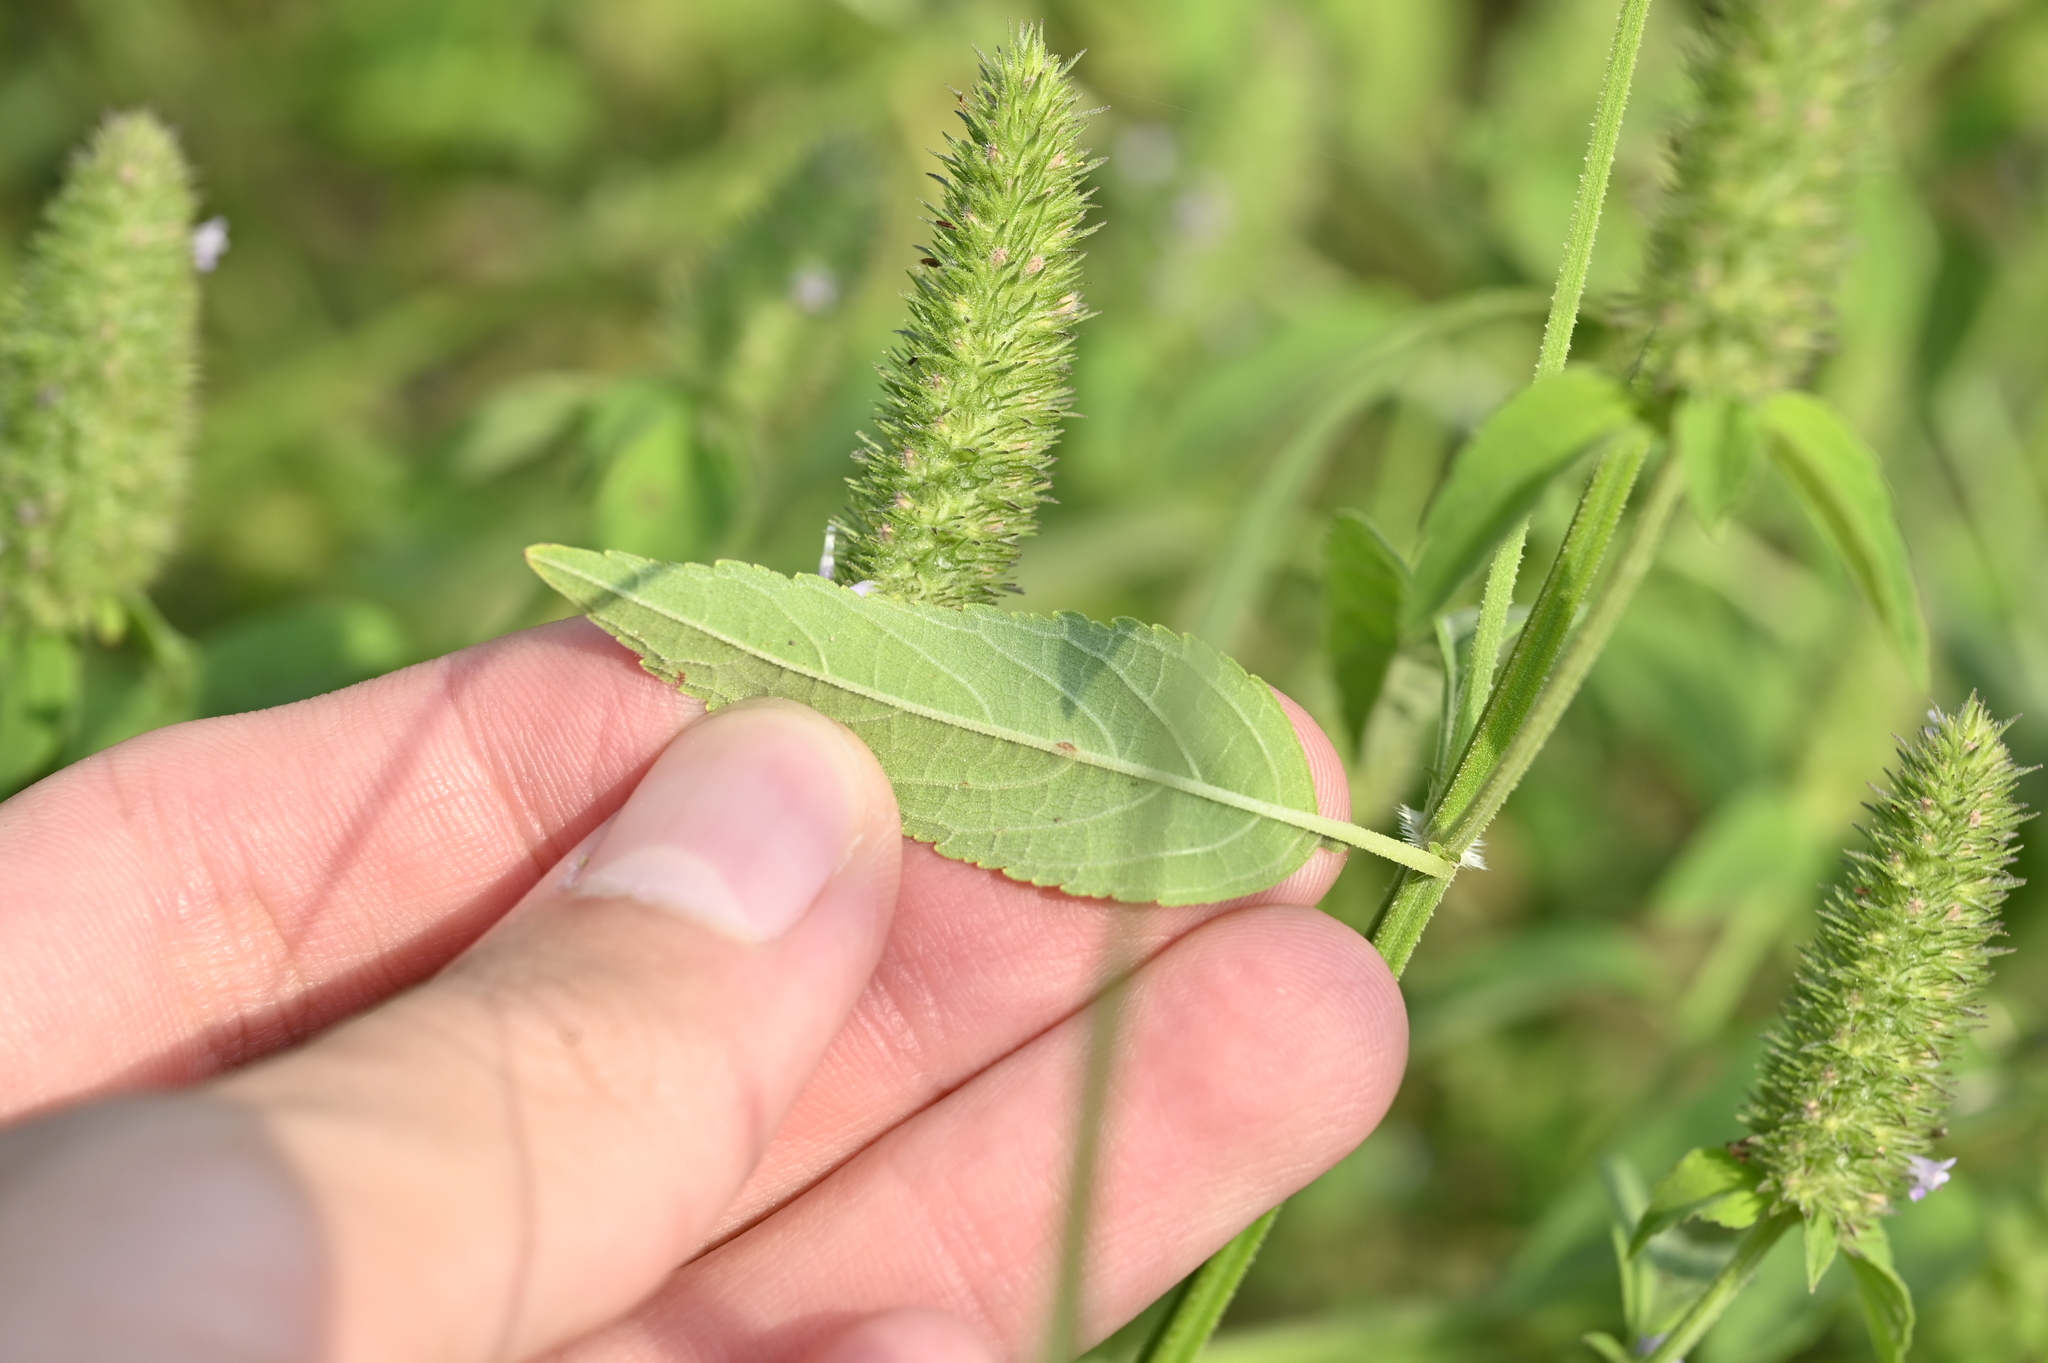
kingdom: Plantae
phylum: Tracheophyta
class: Magnoliopsida
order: Lamiales
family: Lamiaceae
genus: Cantinoa
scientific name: Cantinoa americana
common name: Black-sesame
